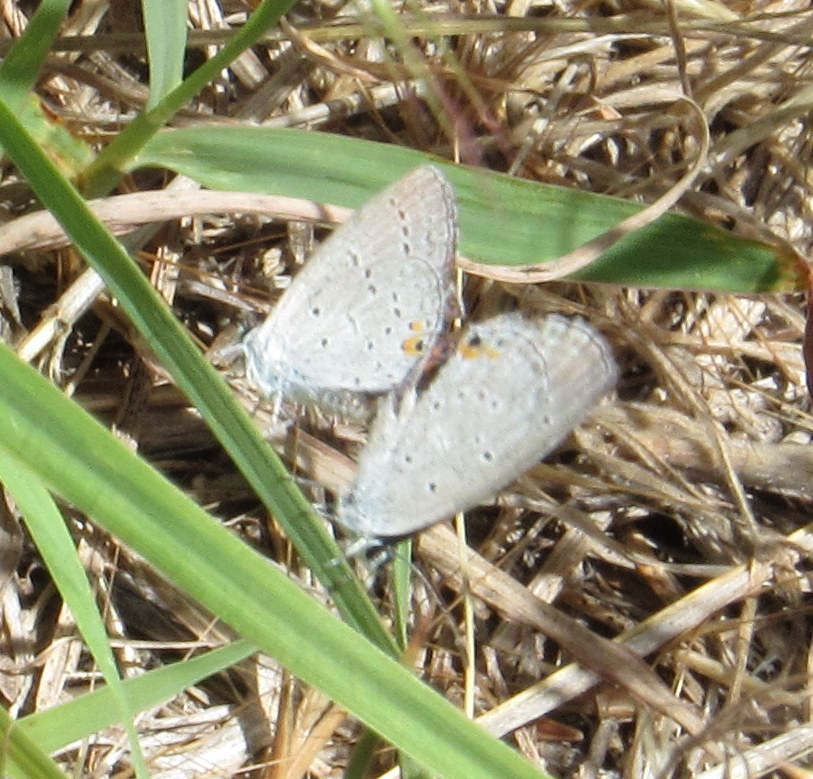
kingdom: Animalia
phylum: Arthropoda
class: Insecta
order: Lepidoptera
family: Lycaenidae
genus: Elkalyce
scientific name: Elkalyce comyntas
